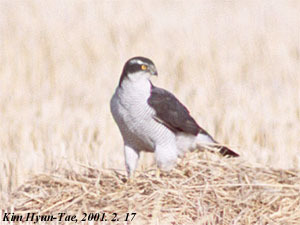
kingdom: Animalia
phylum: Chordata
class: Aves
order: Accipitriformes
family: Accipitridae
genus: Accipiter
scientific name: Accipiter gentilis
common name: Northern goshawk
